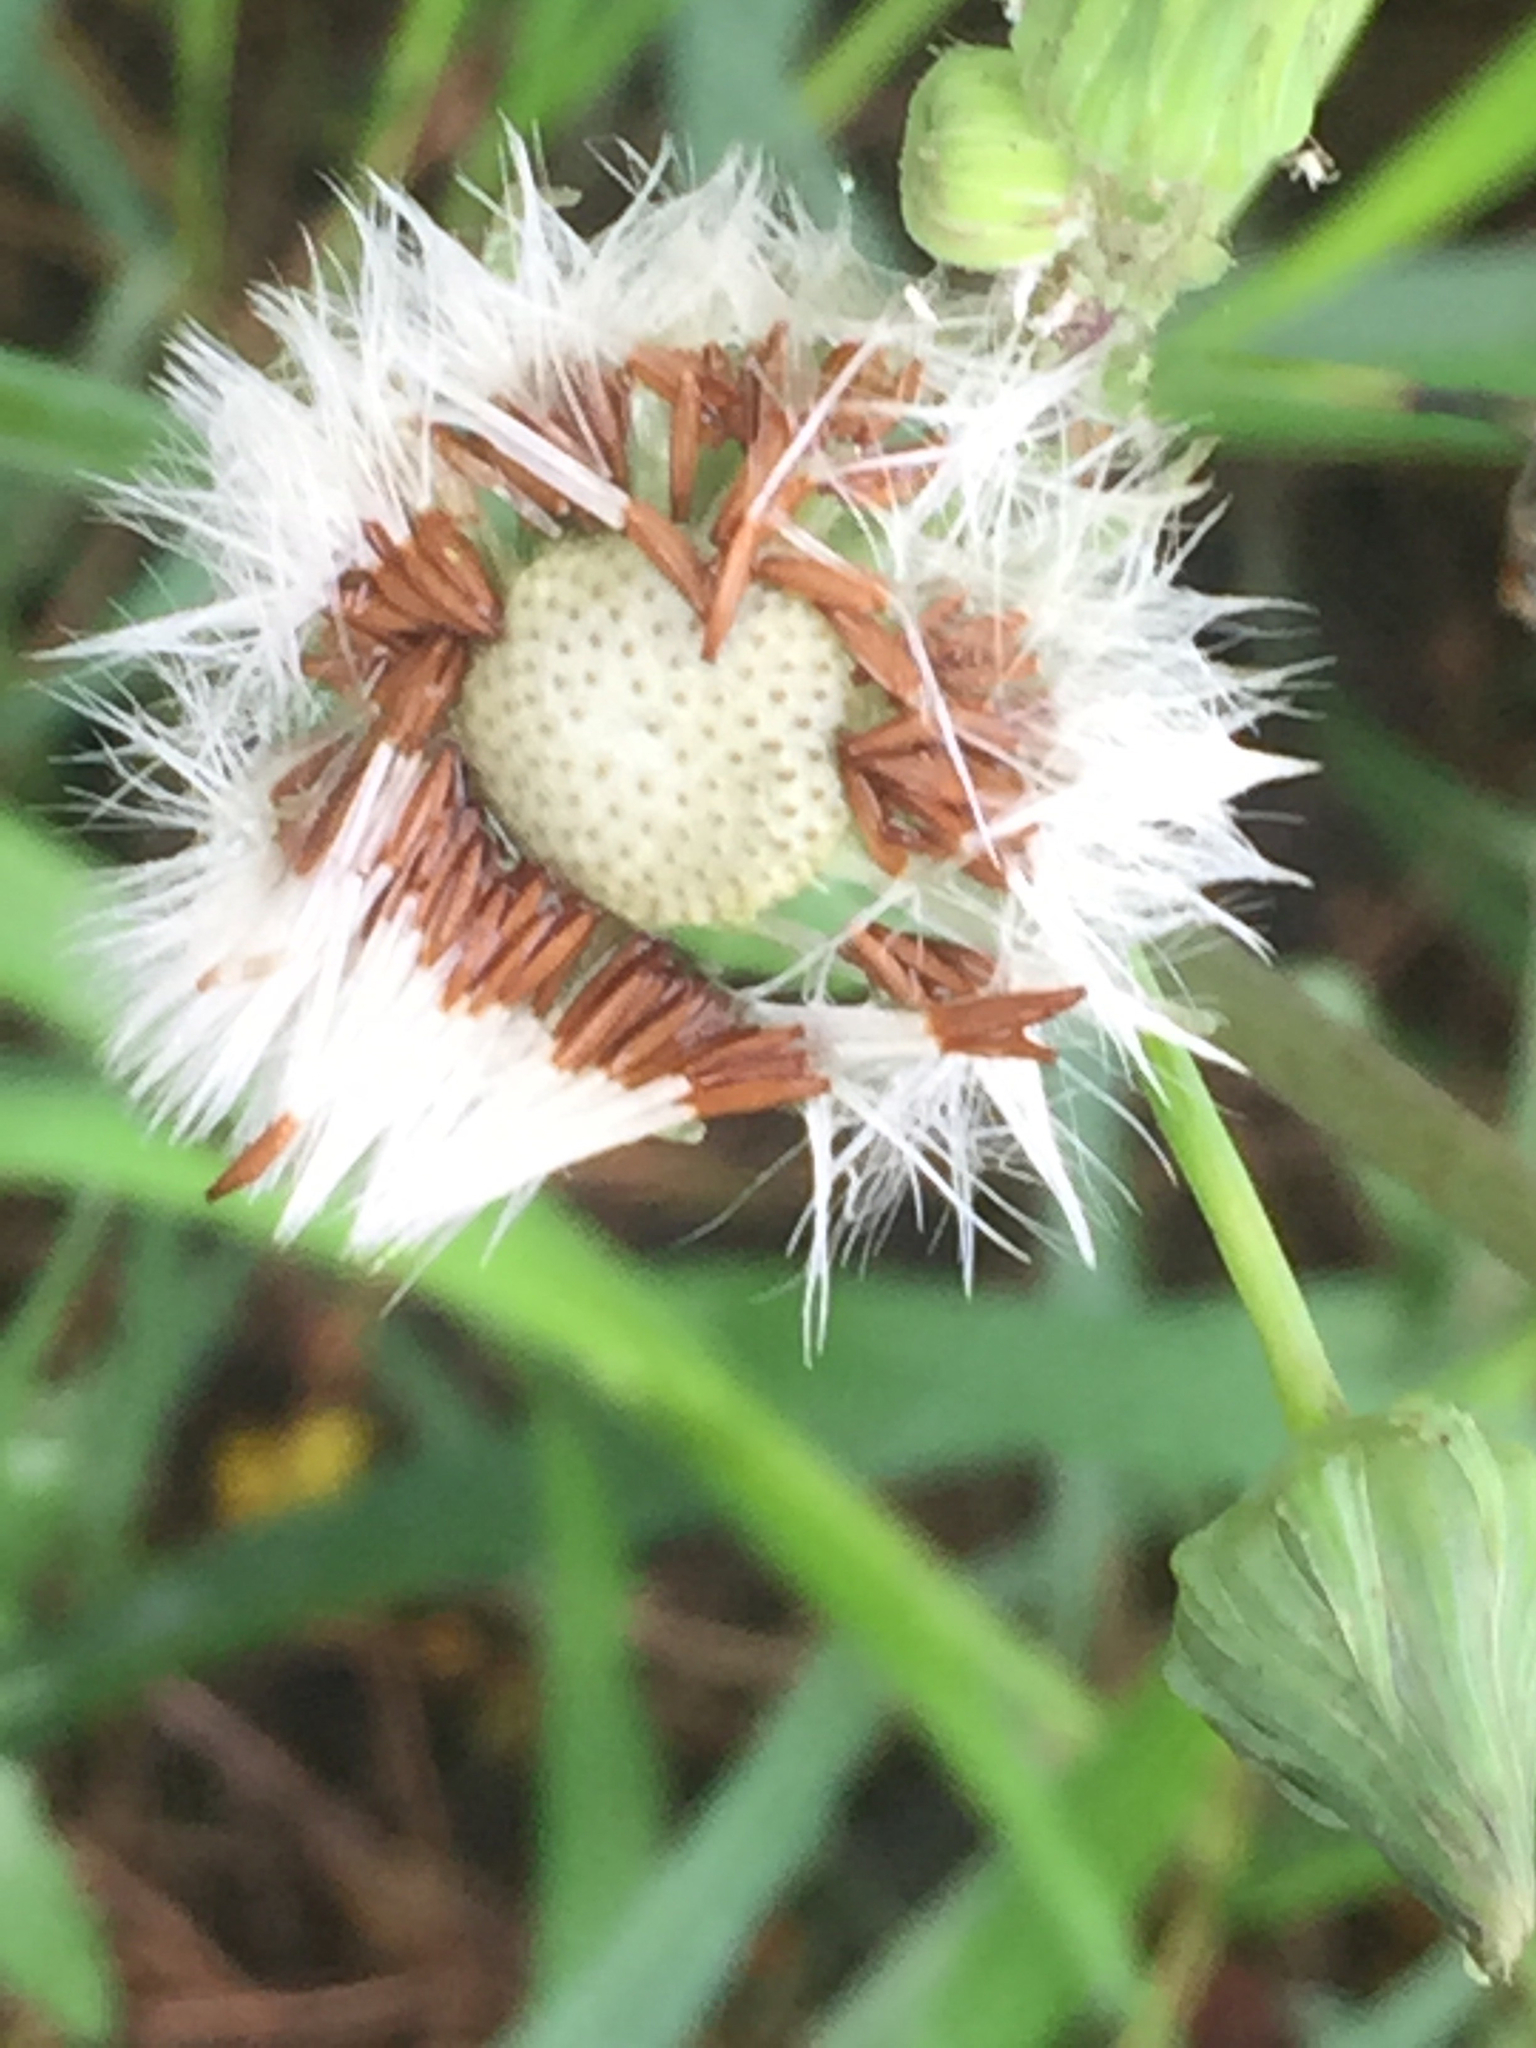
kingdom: Plantae
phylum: Tracheophyta
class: Magnoliopsida
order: Asterales
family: Asteraceae
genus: Sonchus
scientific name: Sonchus oleraceus
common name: Common sowthistle
